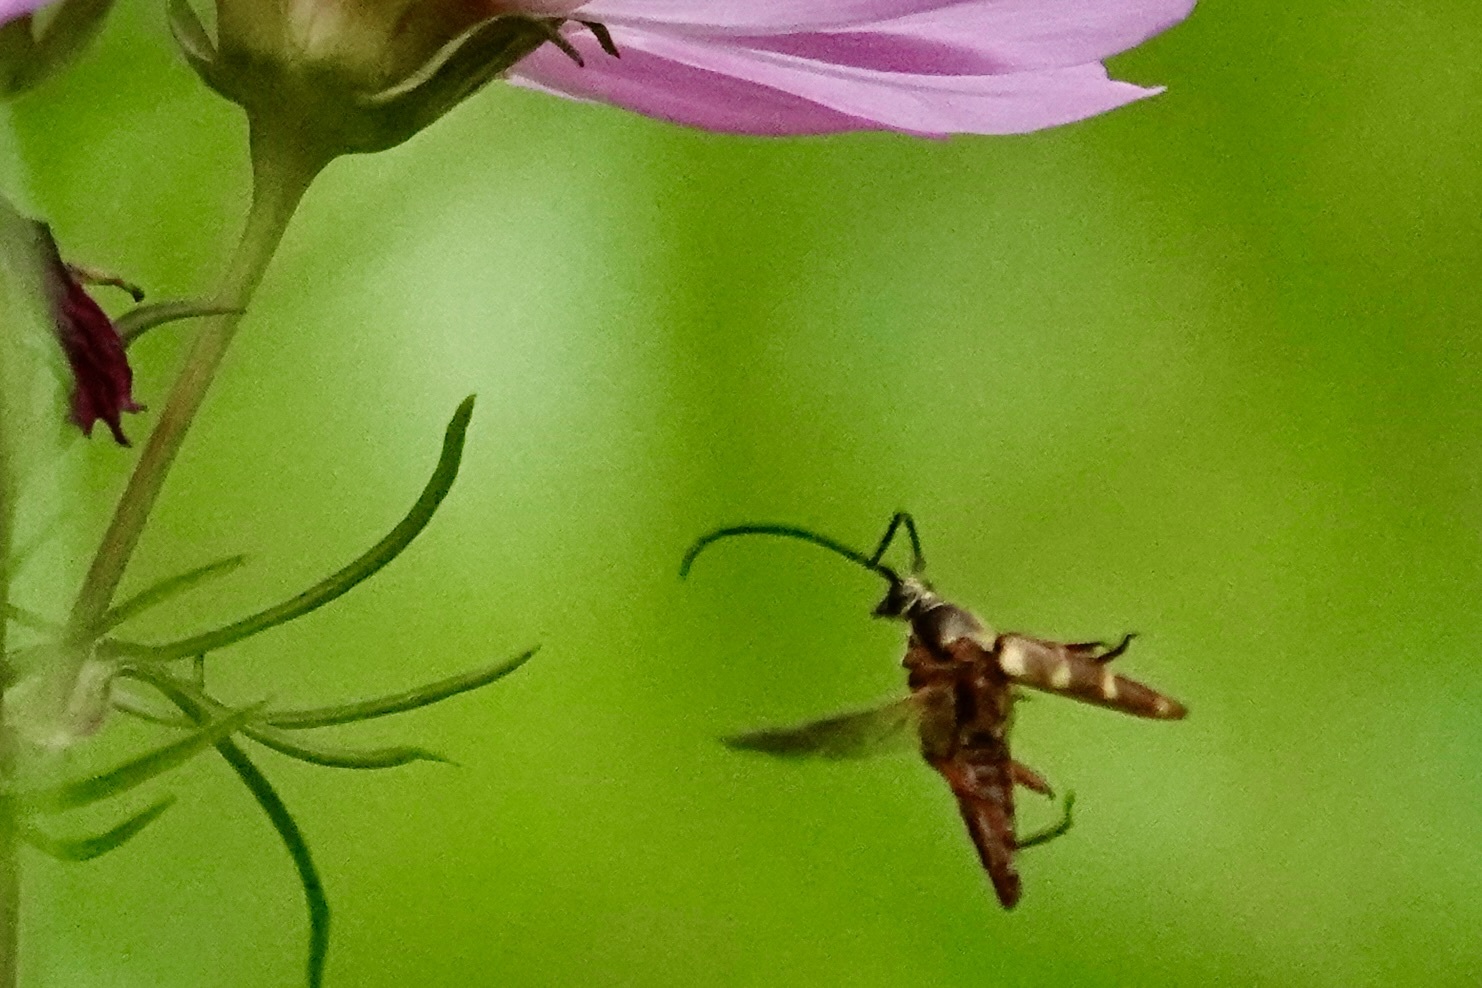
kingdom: Animalia
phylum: Arthropoda
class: Insecta
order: Coleoptera
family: Cerambycidae
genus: Typocerus
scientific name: Typocerus velutinus
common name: Banded longhorn beetle
